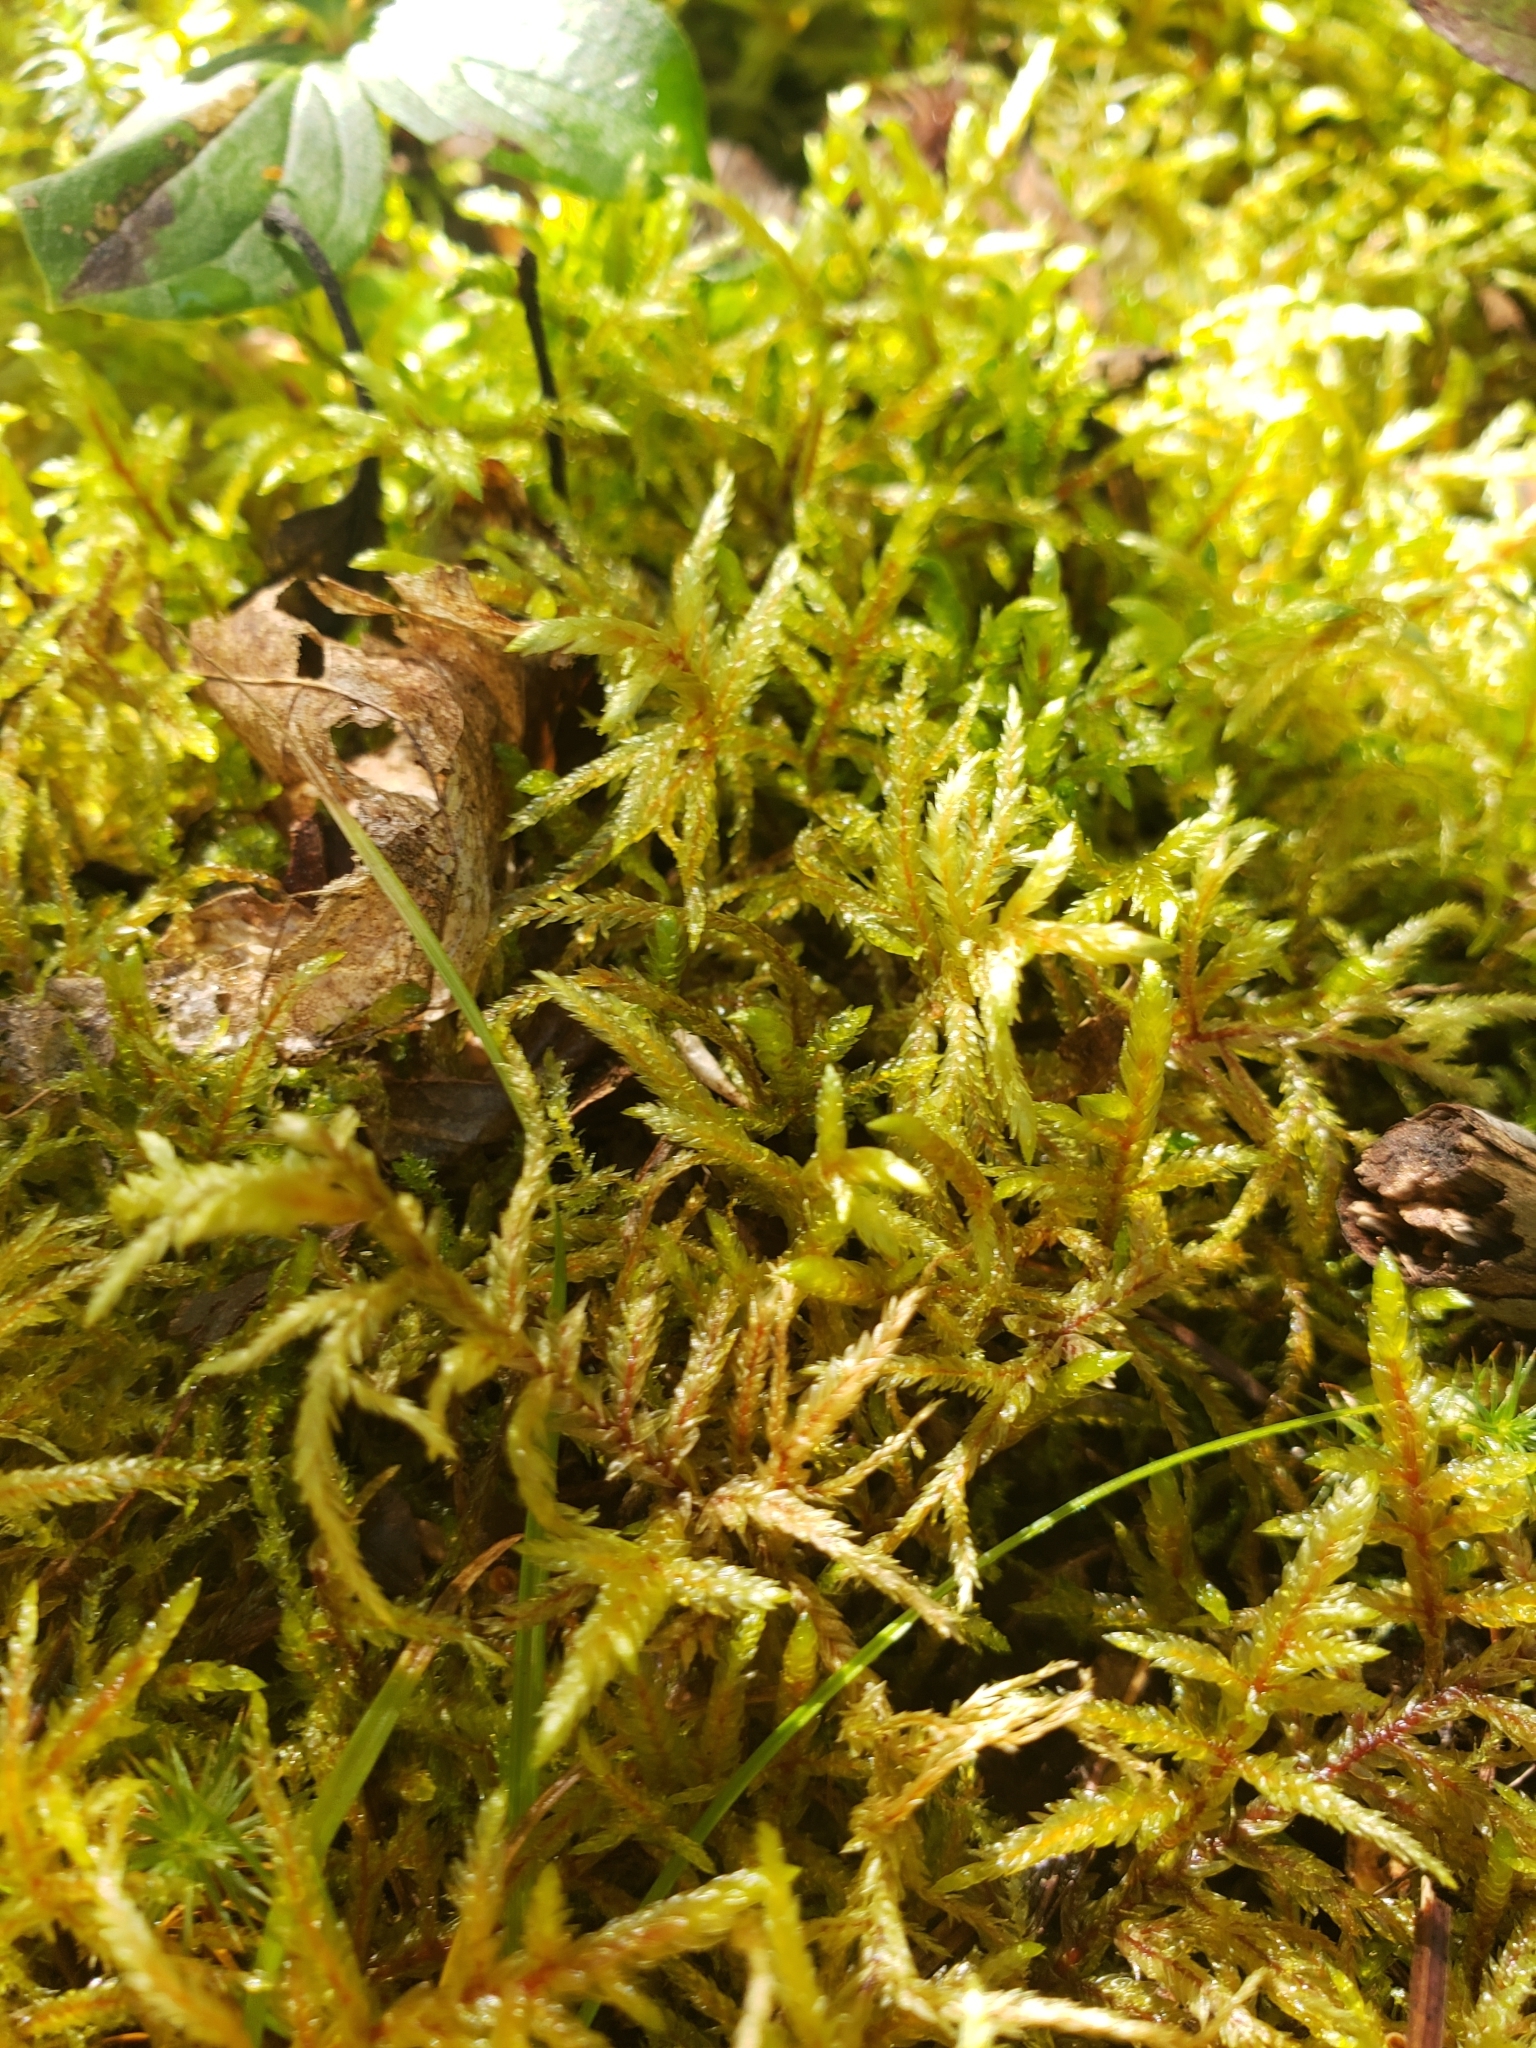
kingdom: Plantae
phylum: Bryophyta
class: Bryopsida
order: Hypnales
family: Hylocomiaceae
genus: Pleurozium
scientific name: Pleurozium schreberi
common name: Red-stemmed feather moss
